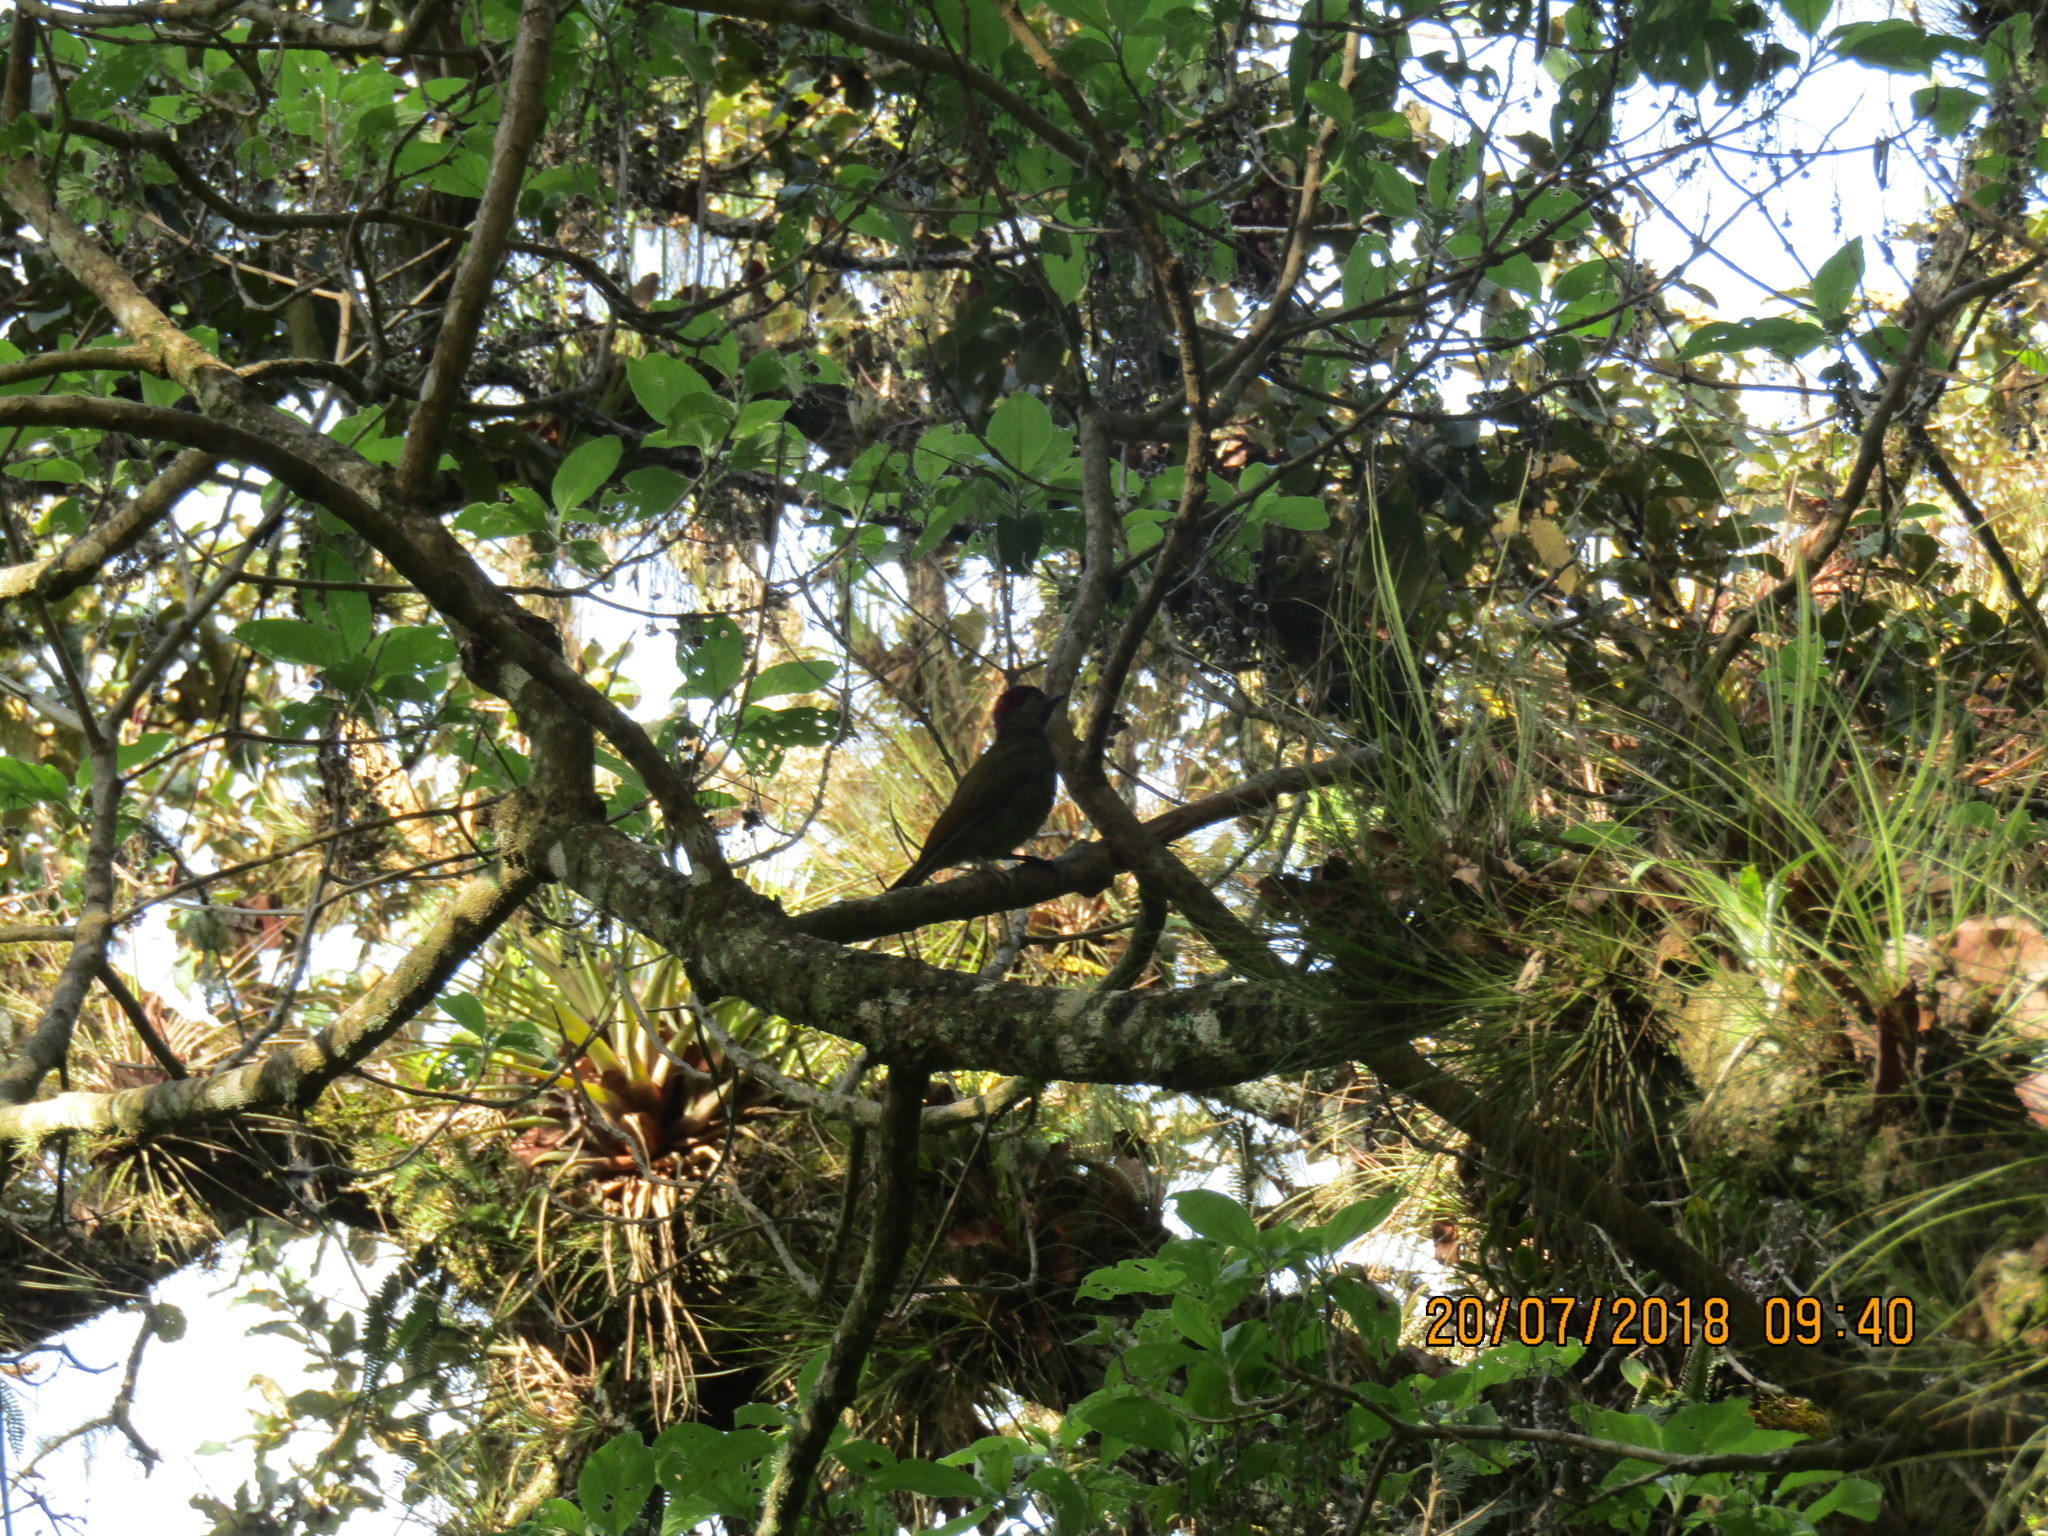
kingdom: Animalia
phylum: Chordata
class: Aves
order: Piciformes
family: Picidae
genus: Colaptes
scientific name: Colaptes rubiginosus
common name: Golden-olive woodpecker
